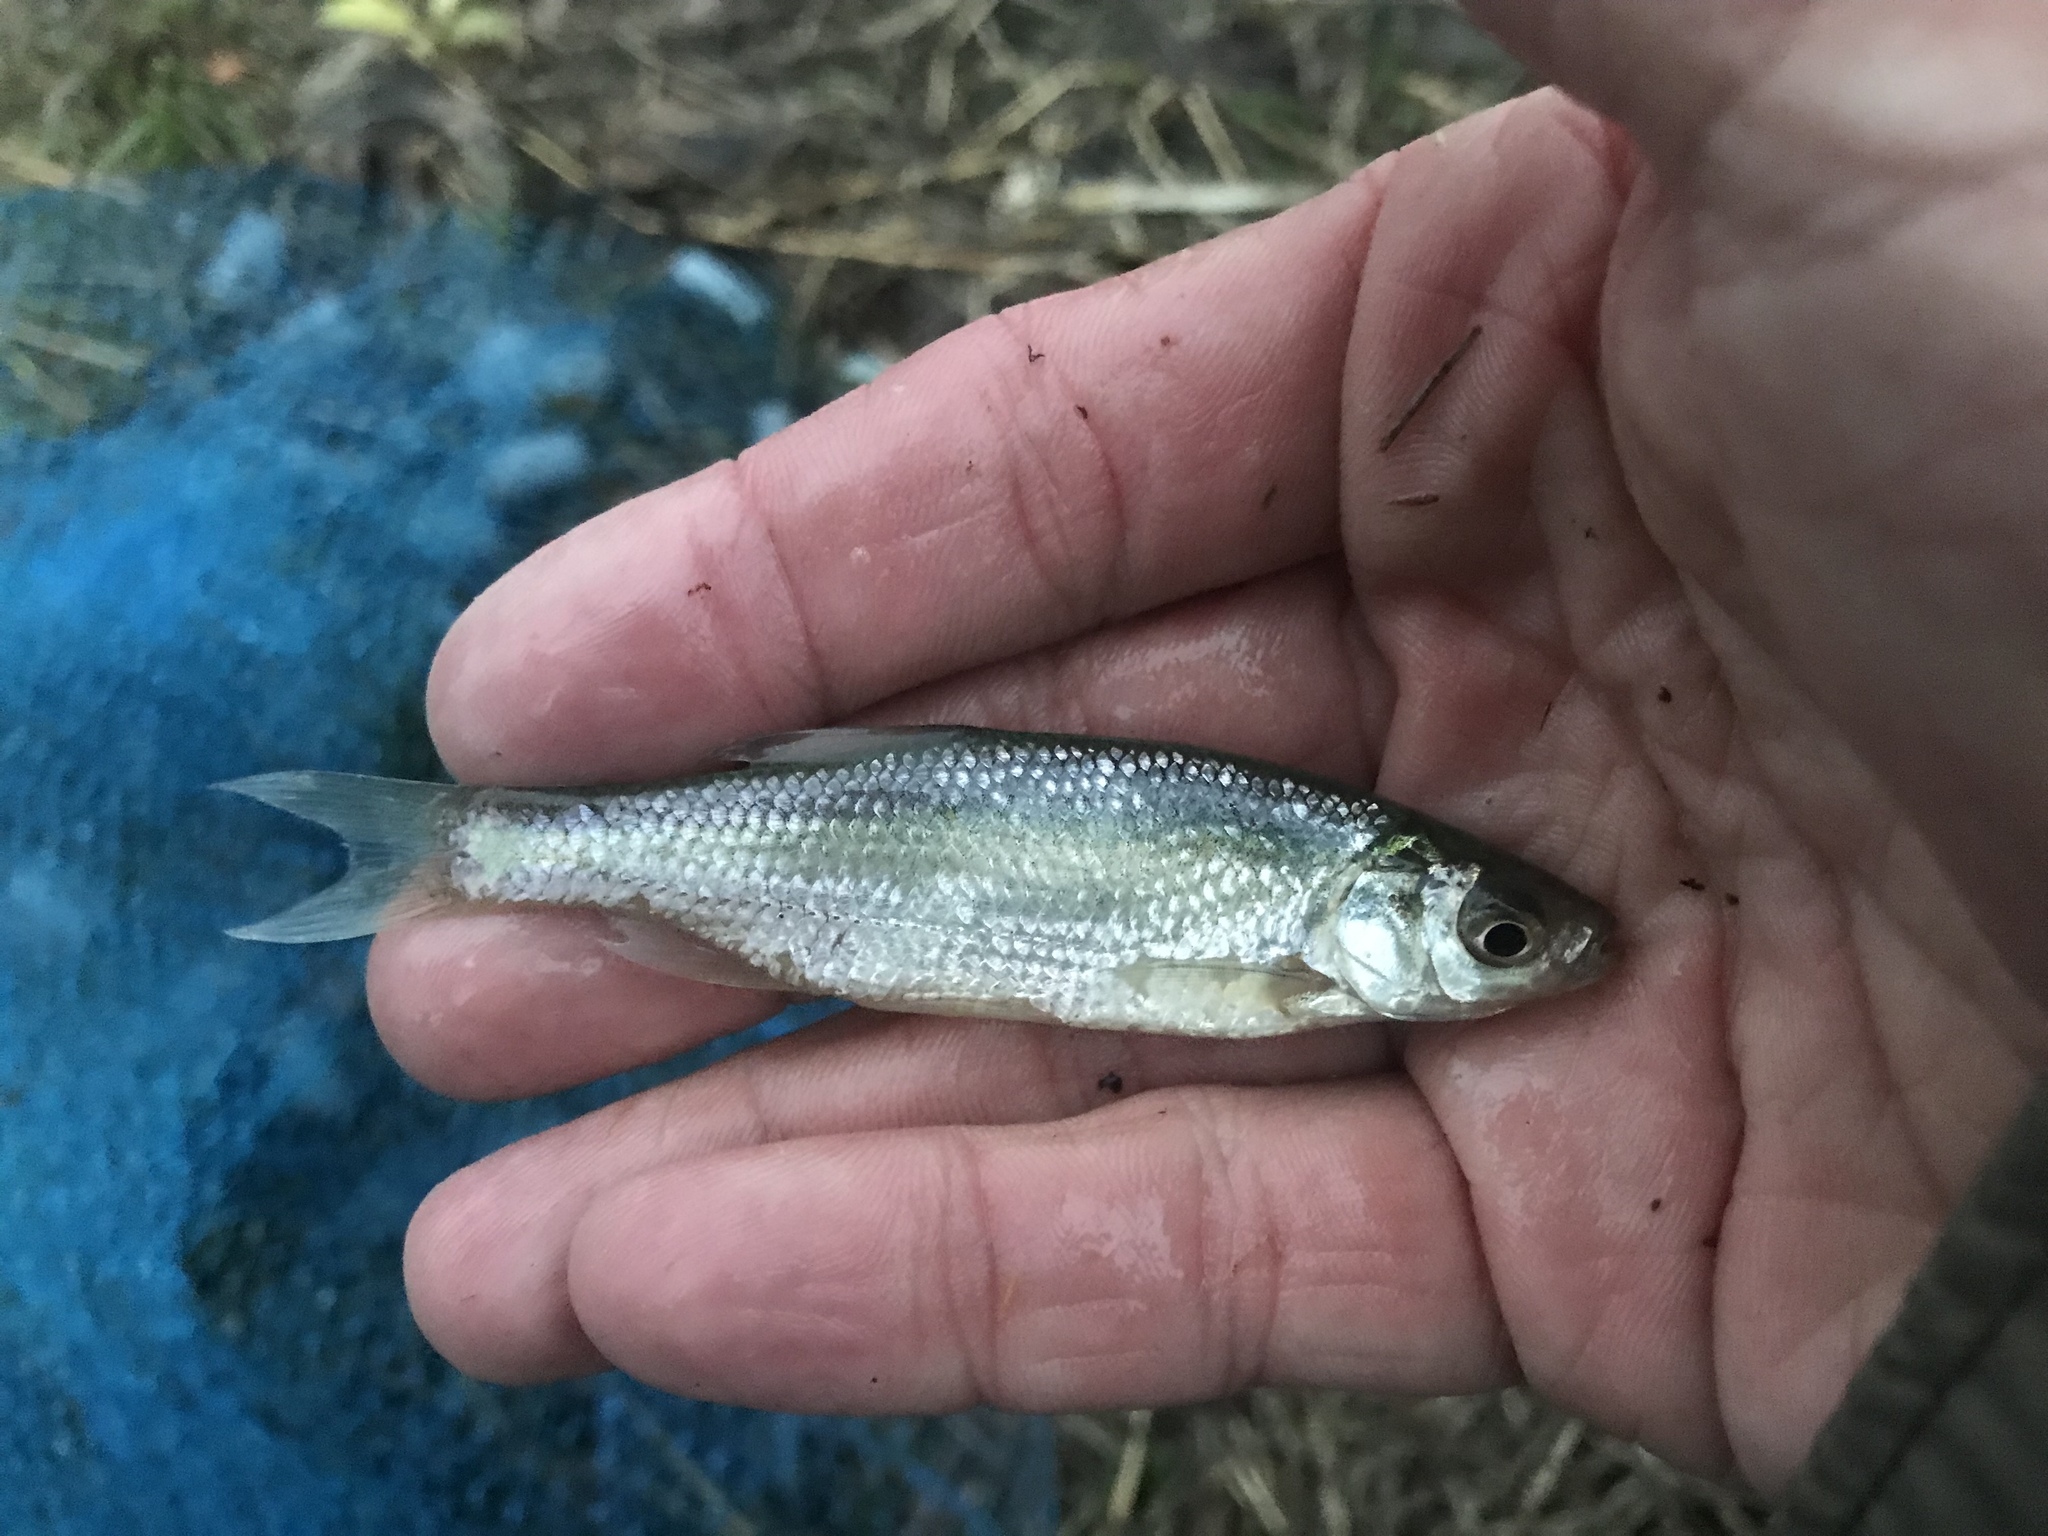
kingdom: Animalia
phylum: Chordata
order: Cypriniformes
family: Cyprinidae
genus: Notemigonus
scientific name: Notemigonus crysoleucas
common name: Golden shiner
